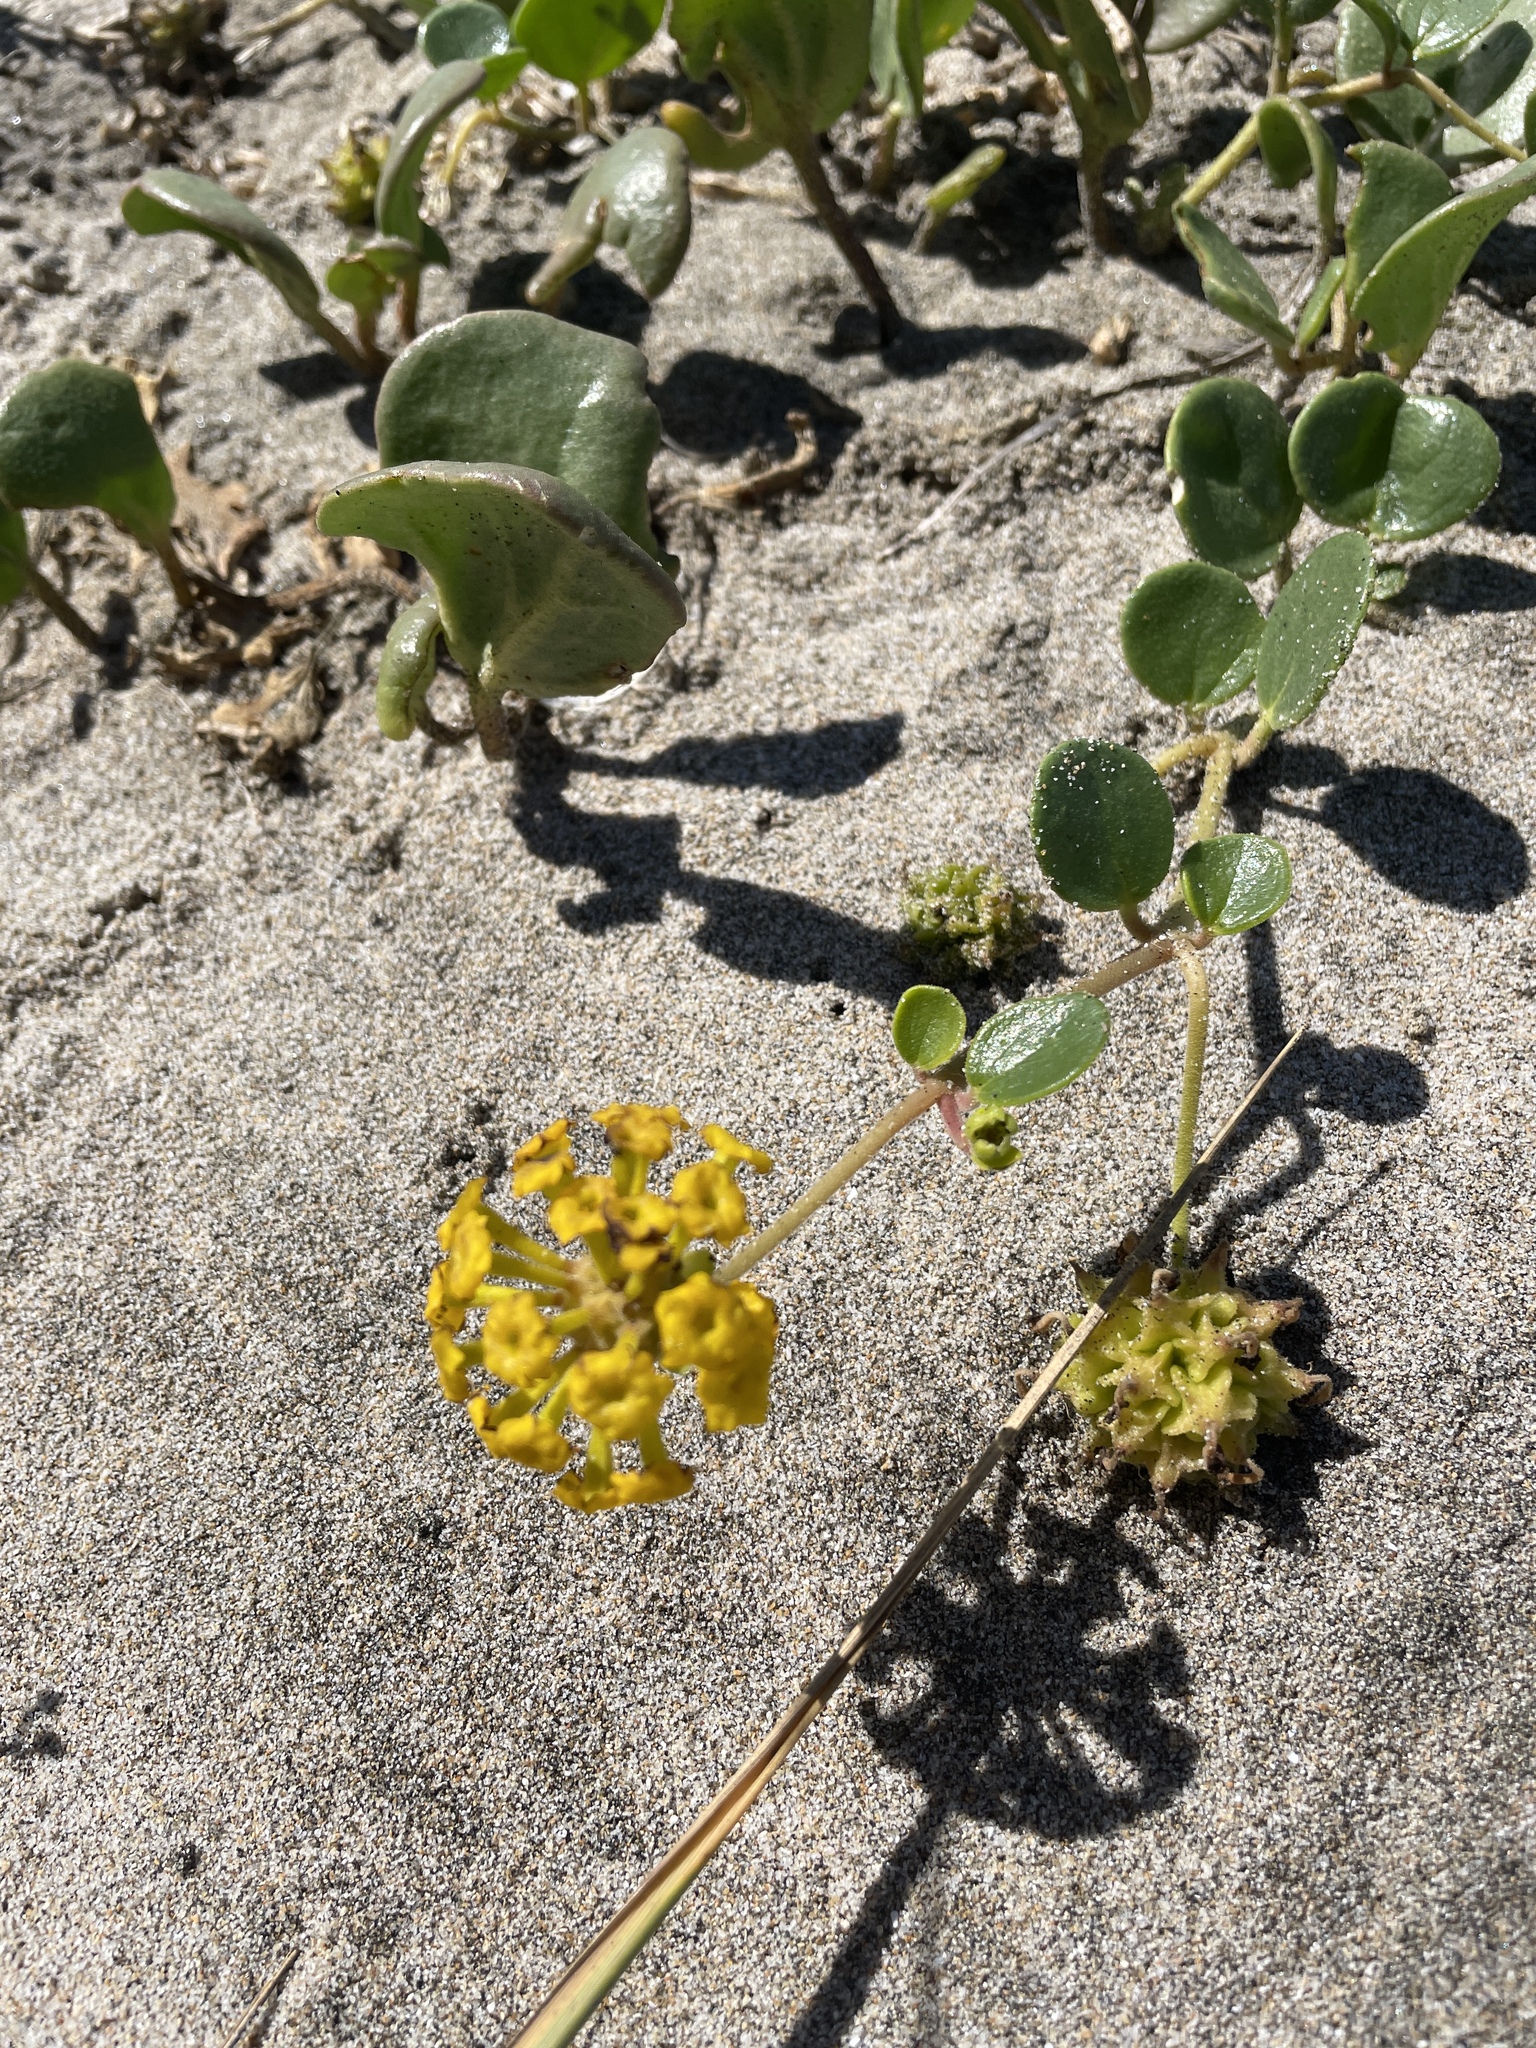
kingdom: Plantae
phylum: Tracheophyta
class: Magnoliopsida
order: Caryophyllales
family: Nyctaginaceae
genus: Abronia
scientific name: Abronia latifolia
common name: Yellow sand-verbena
